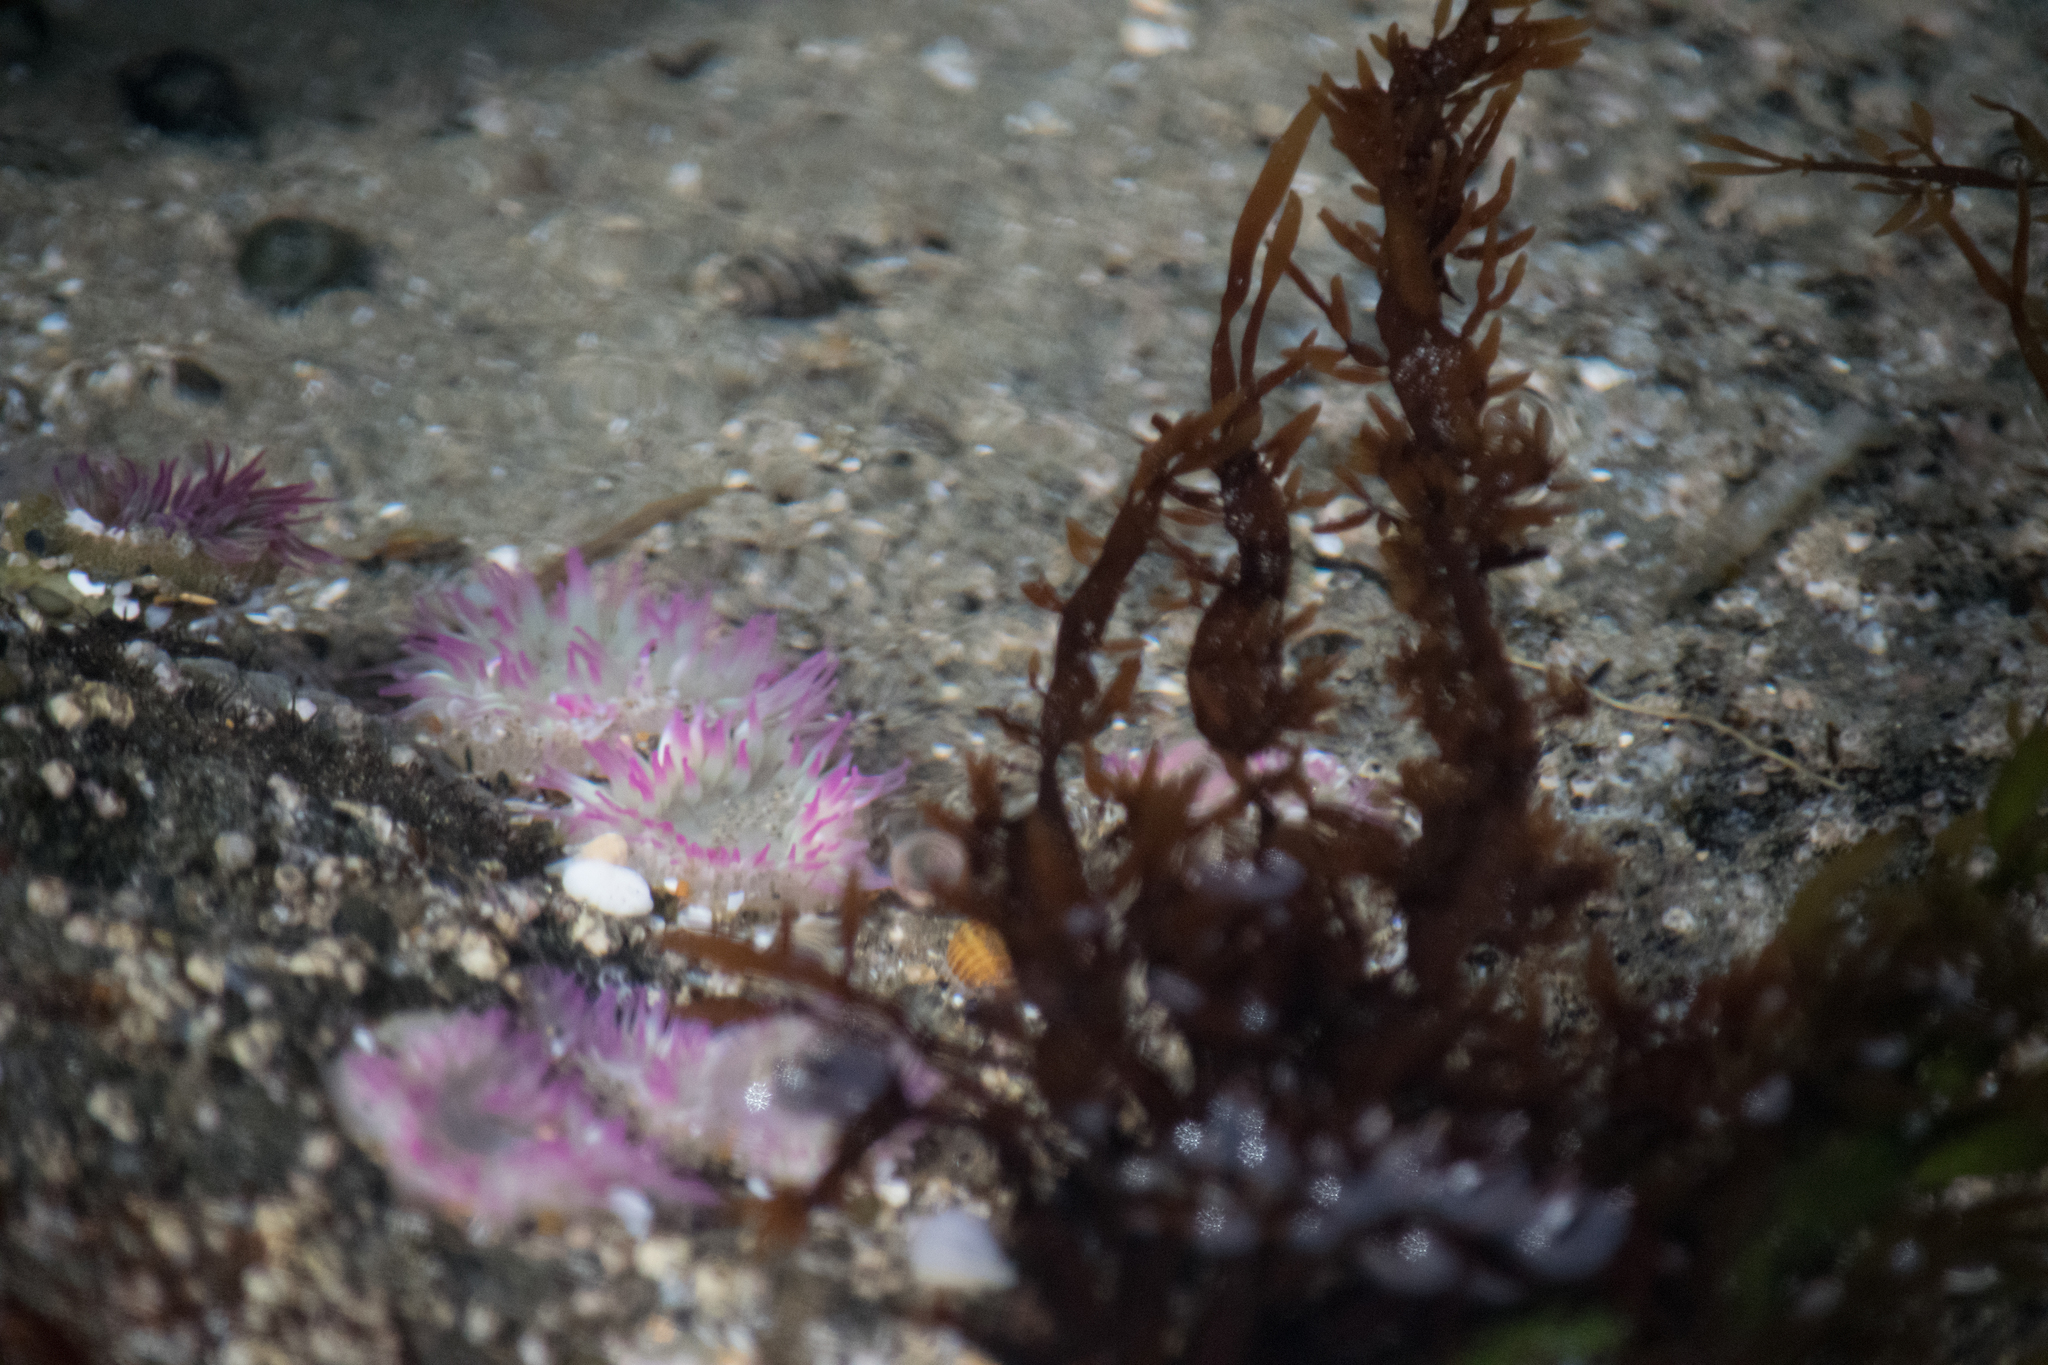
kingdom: Animalia
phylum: Cnidaria
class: Anthozoa
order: Actiniaria
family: Actiniidae
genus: Anthopleura
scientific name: Anthopleura elegantissima
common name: Clonal anemone
